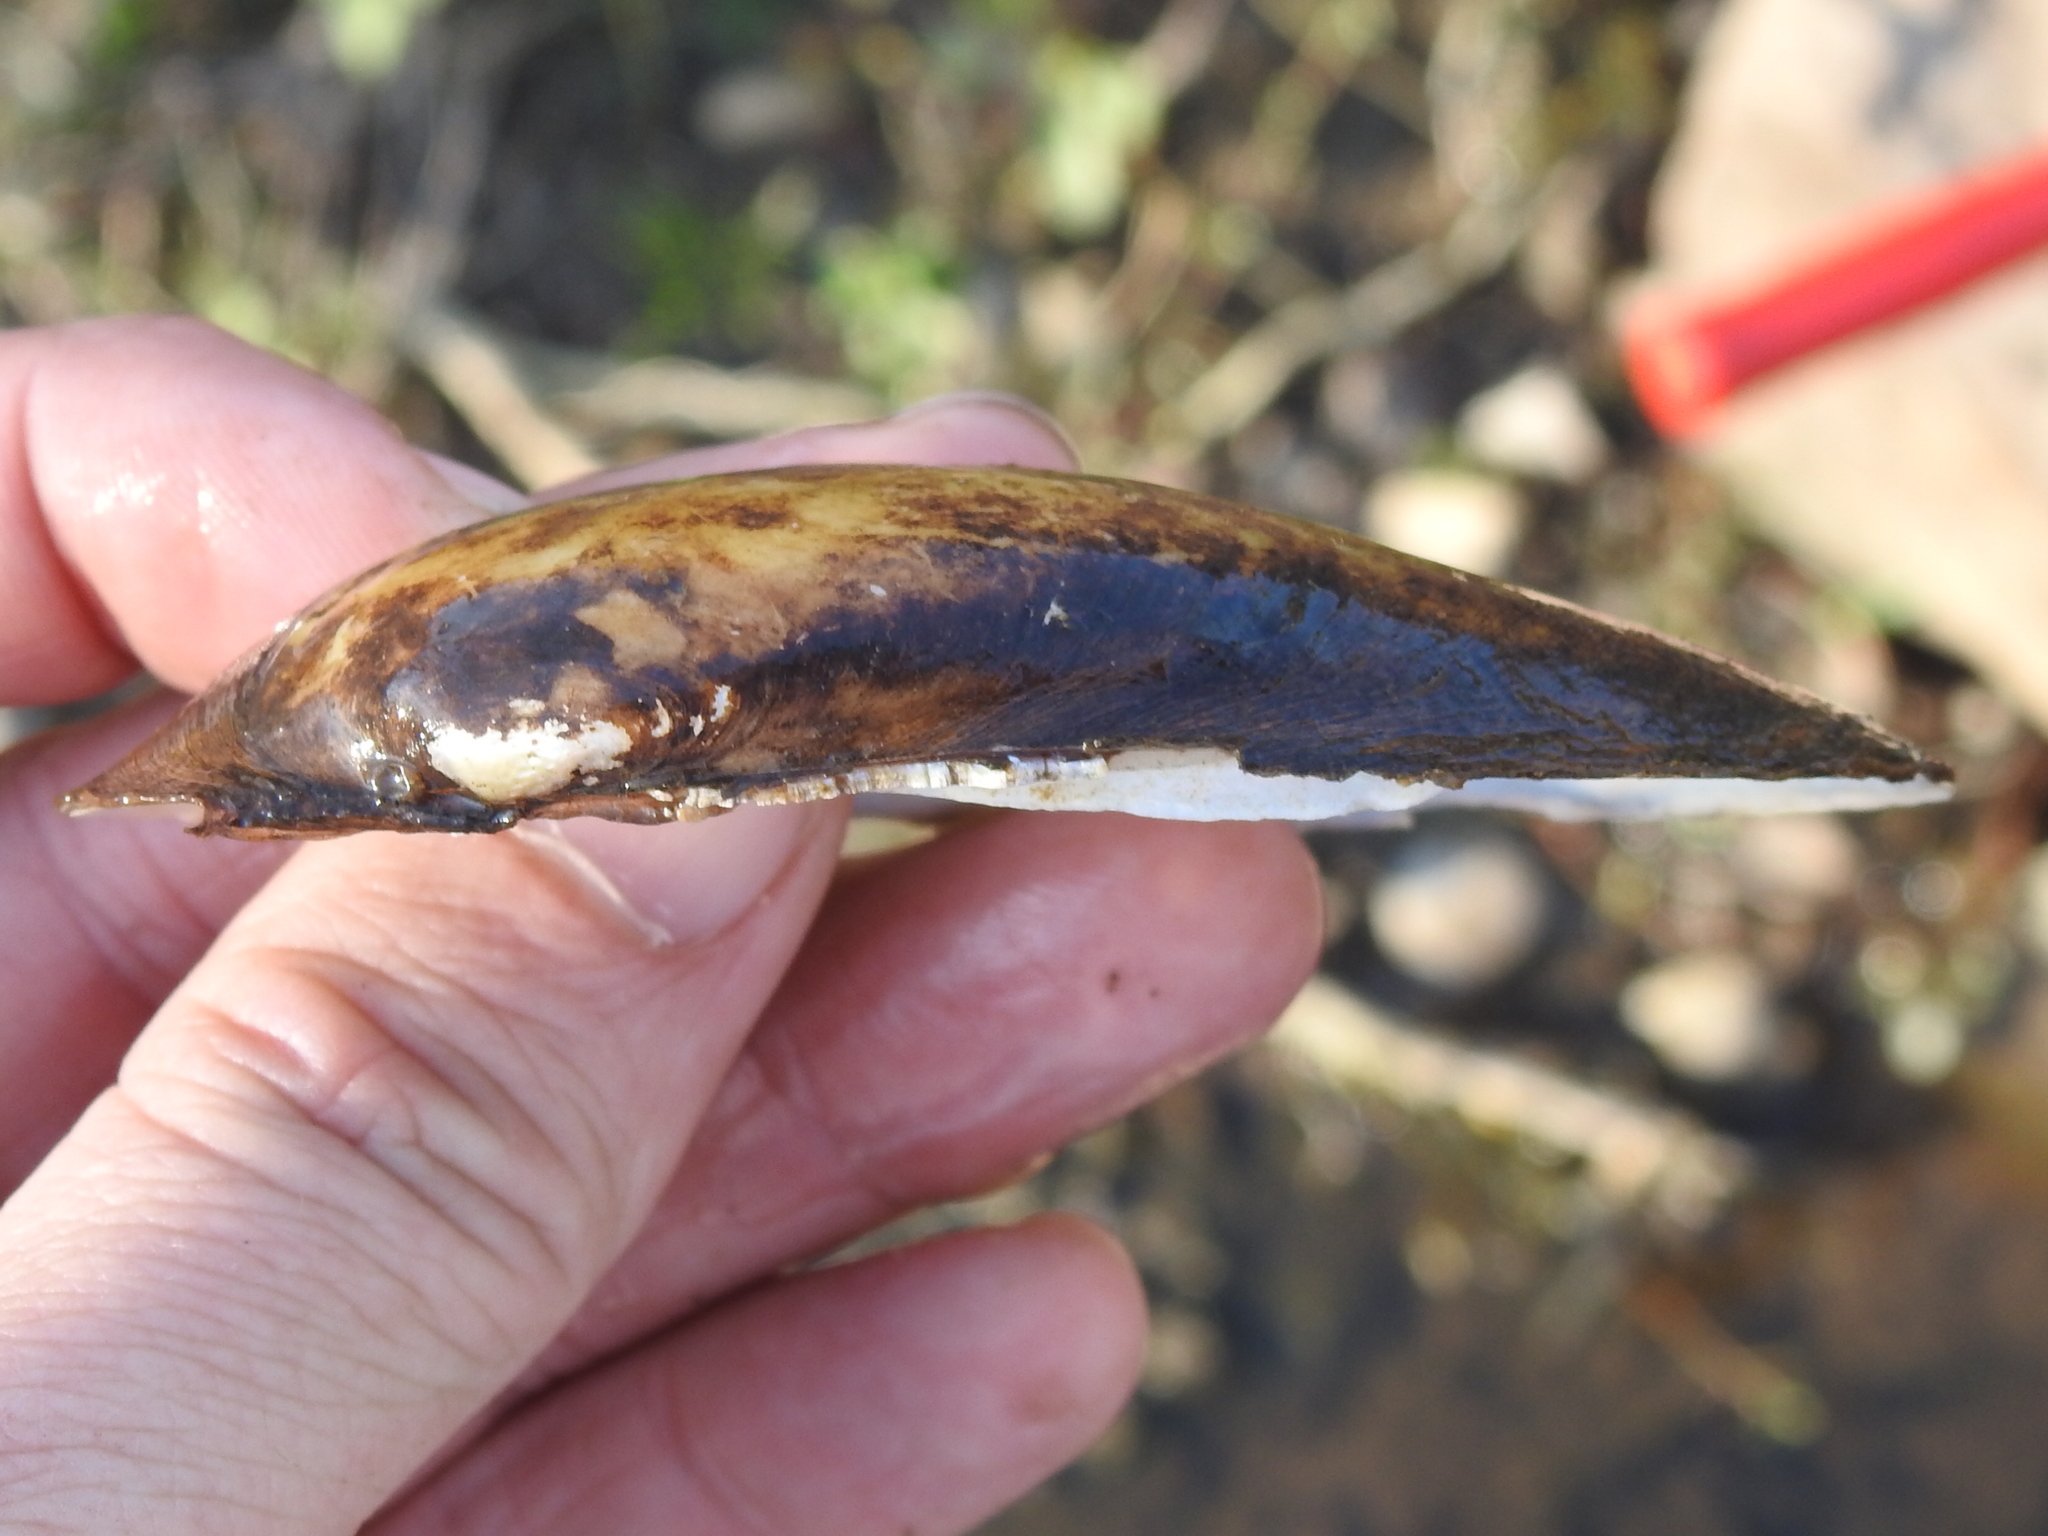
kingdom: Animalia
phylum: Mollusca
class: Bivalvia
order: Unionida
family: Unionidae
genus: Lampsilis
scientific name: Lampsilis teres
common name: Yellow sandshell
